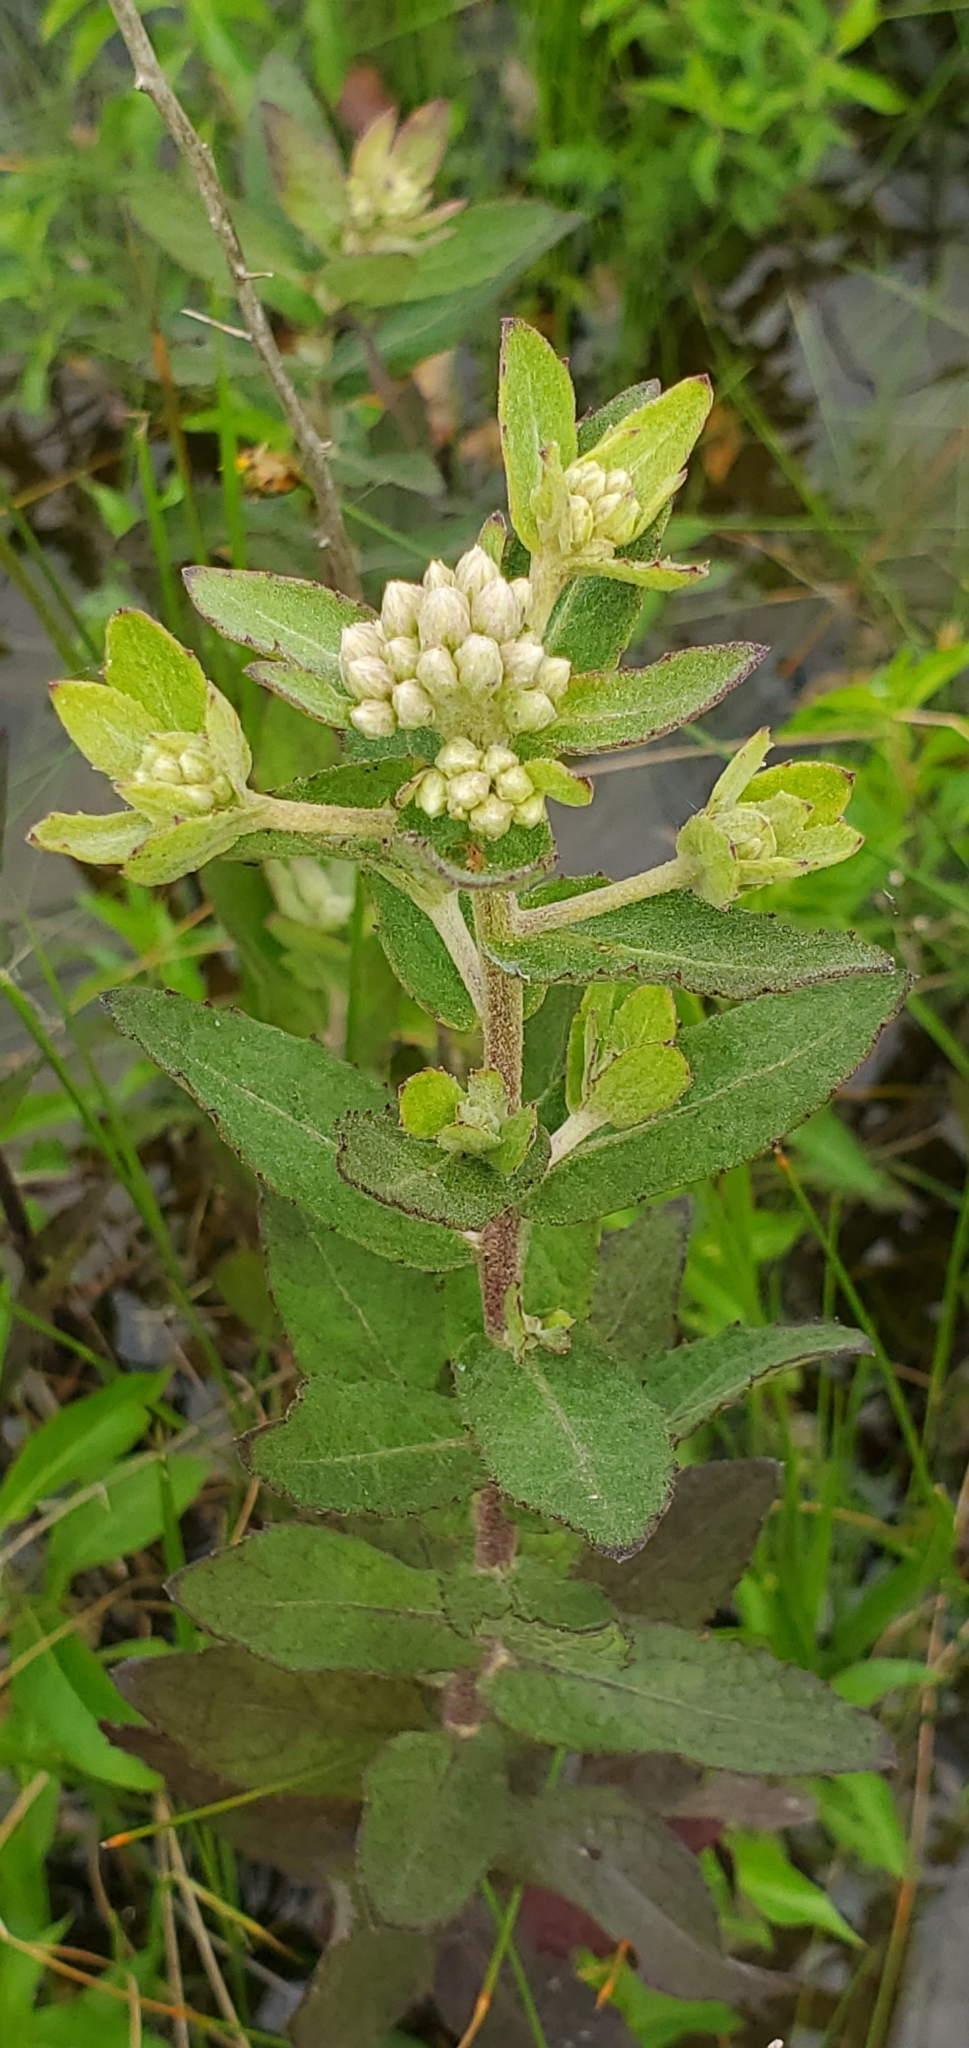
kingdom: Plantae
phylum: Tracheophyta
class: Magnoliopsida
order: Asterales
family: Asteraceae
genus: Pluchea
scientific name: Pluchea foetida
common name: Stinking camphorweed
